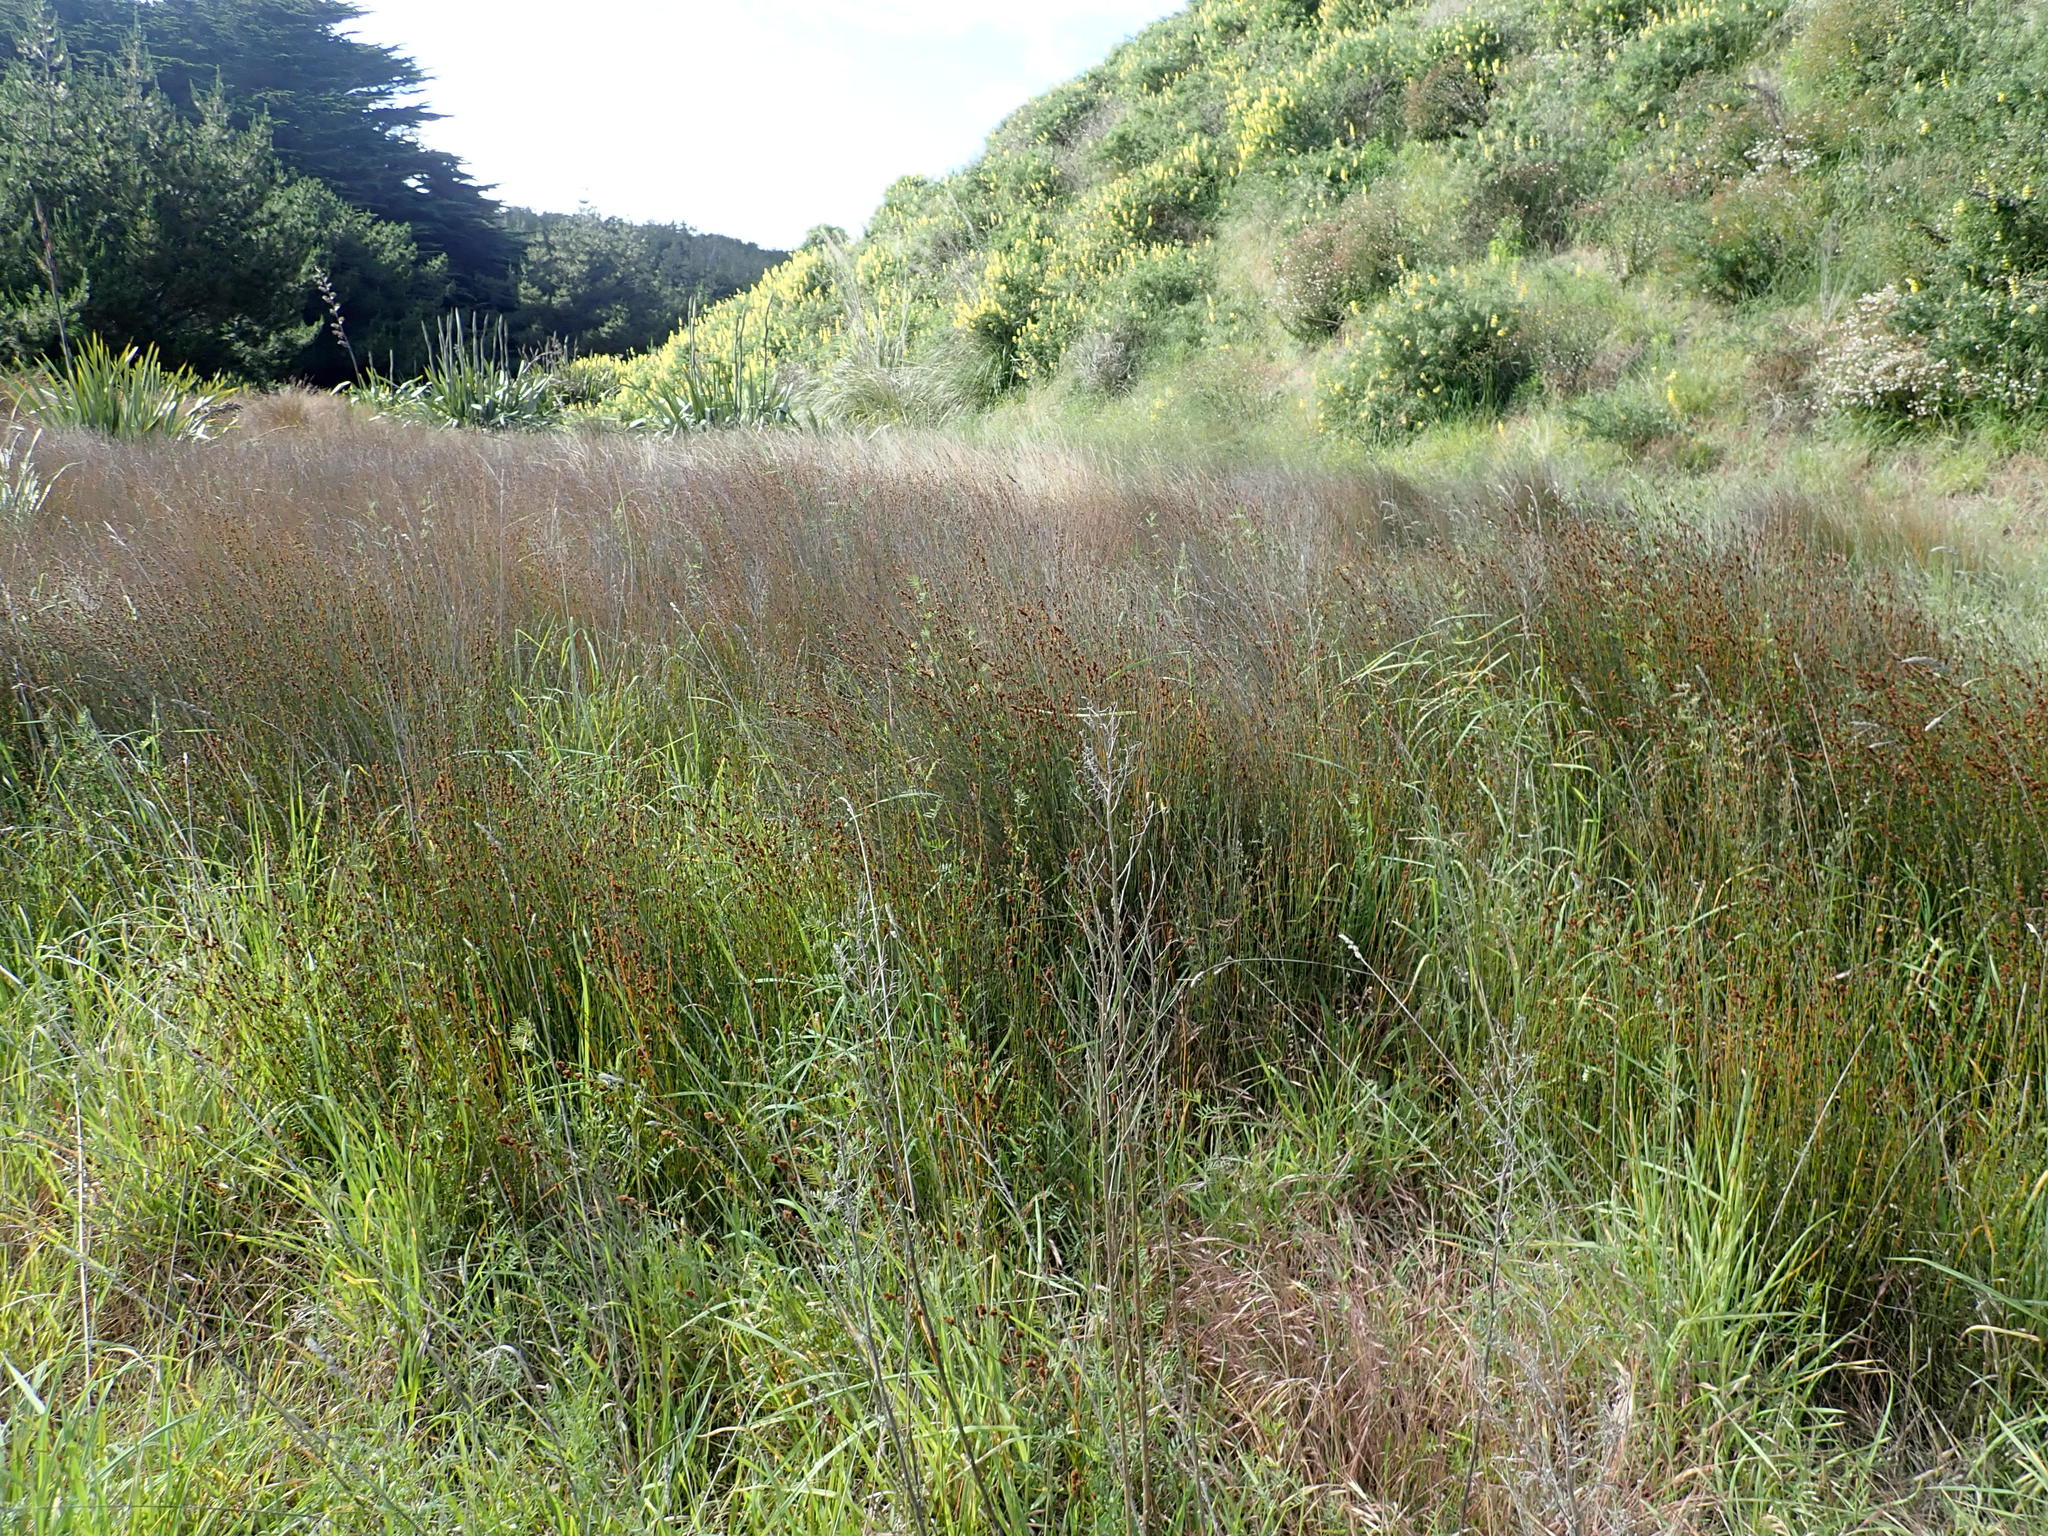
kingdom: Plantae
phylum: Tracheophyta
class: Liliopsida
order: Poales
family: Restionaceae
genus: Apodasmia
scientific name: Apodasmia similis
